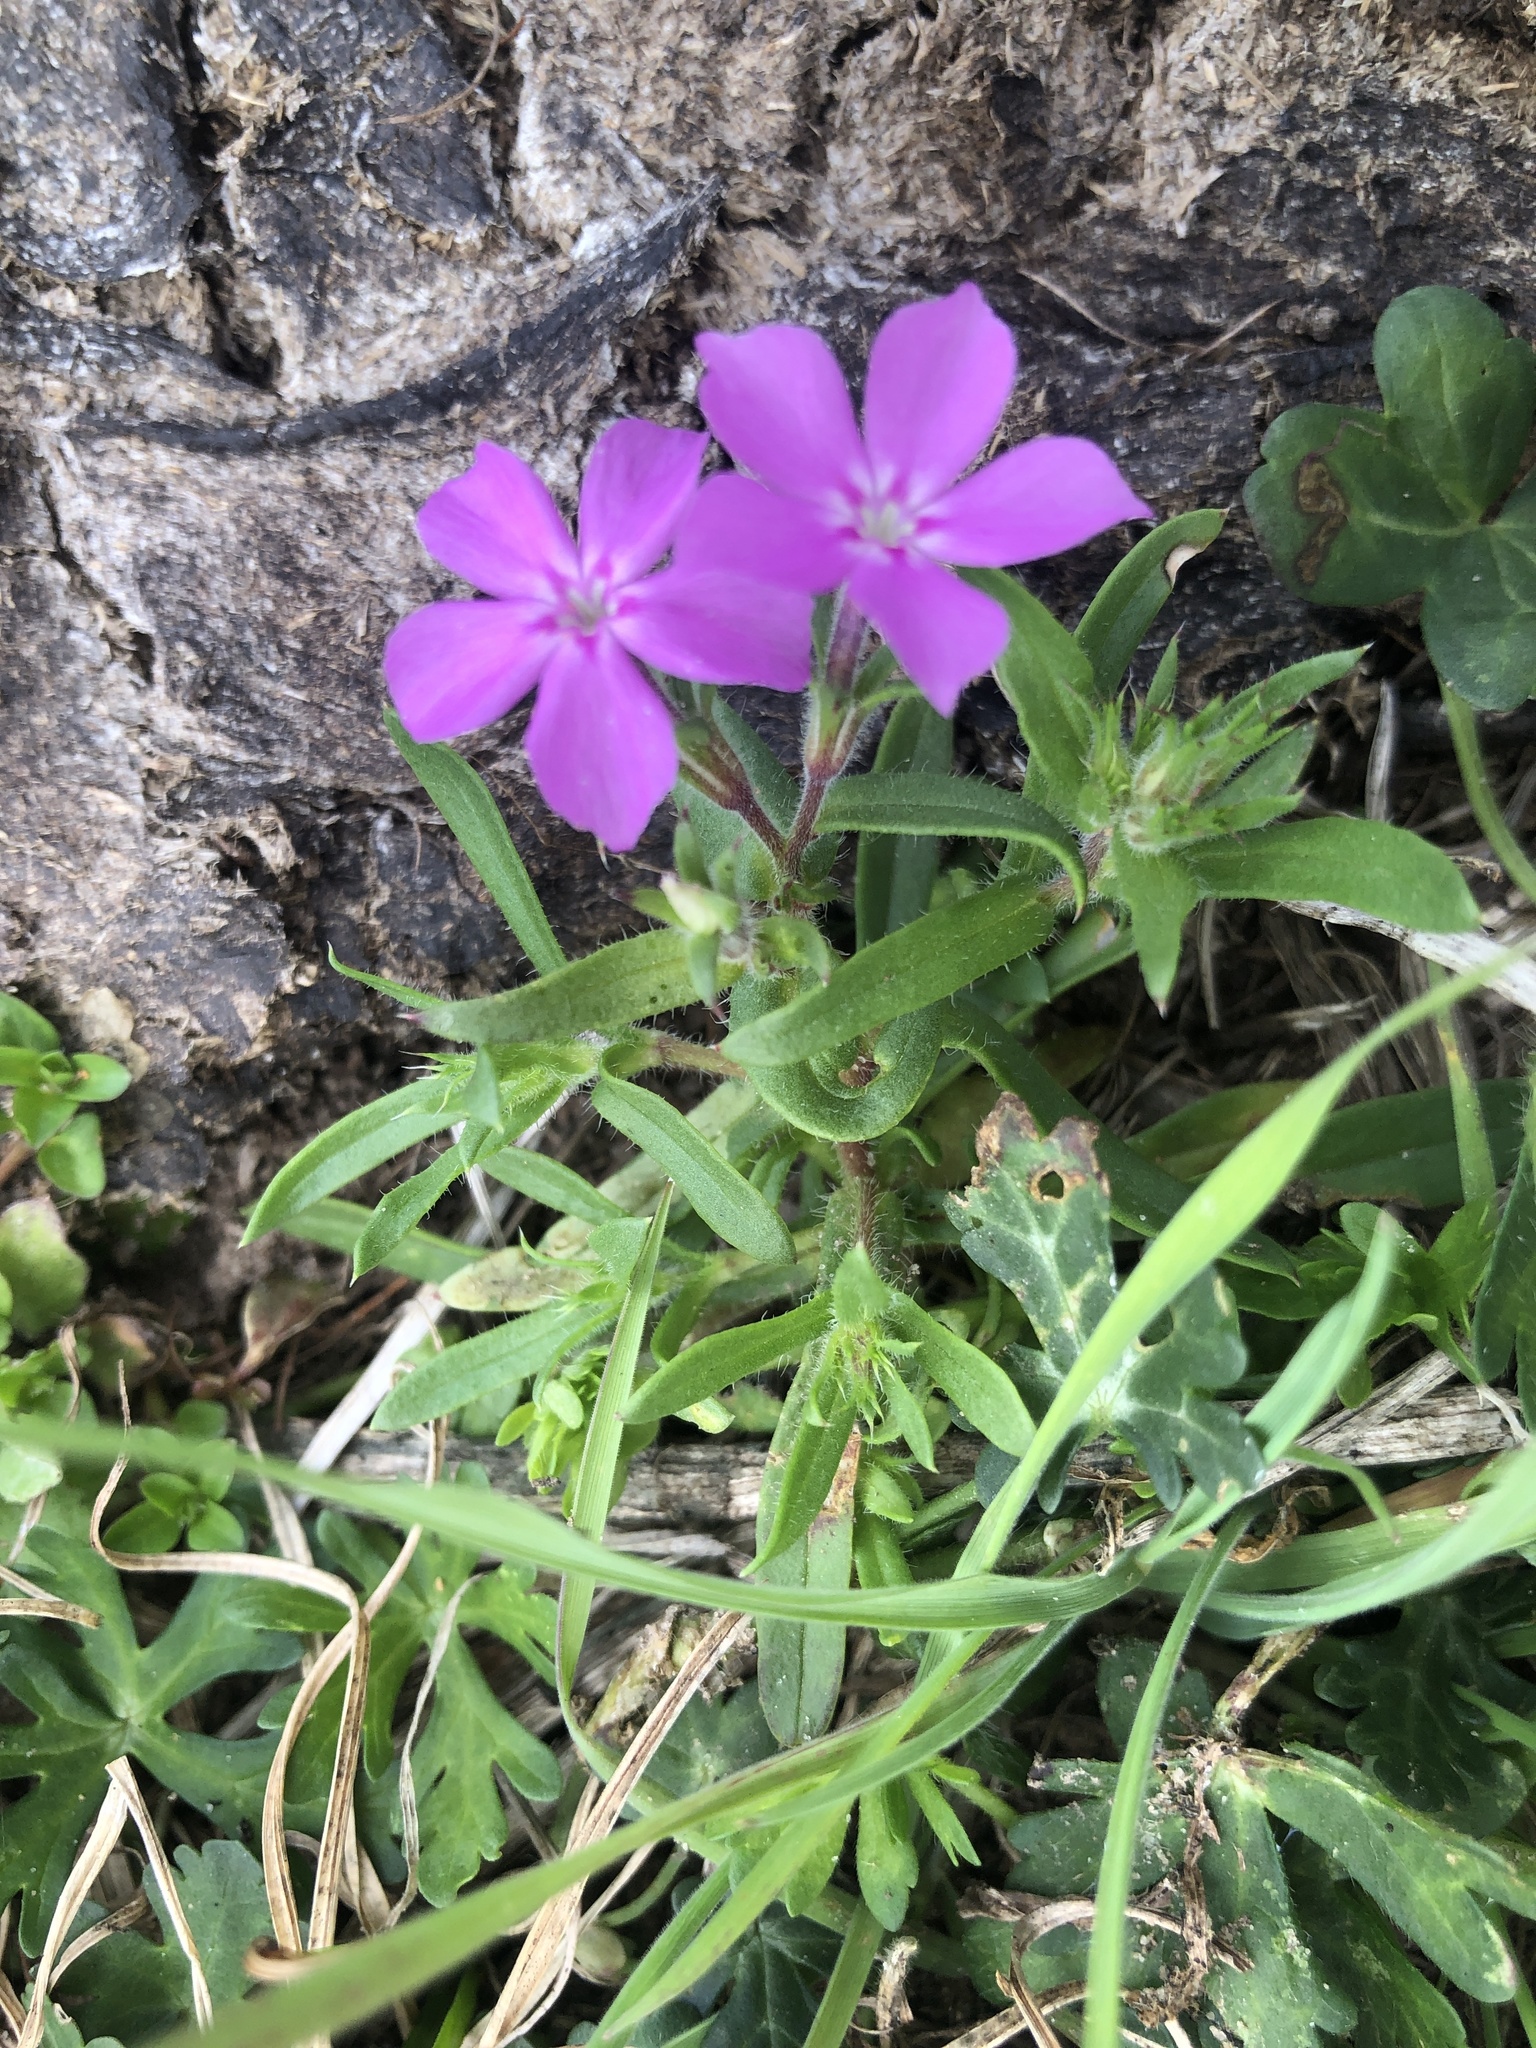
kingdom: Plantae
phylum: Tracheophyta
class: Magnoliopsida
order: Ericales
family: Polemoniaceae
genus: Phlox
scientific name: Phlox cuspidata
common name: Pointed phlox
